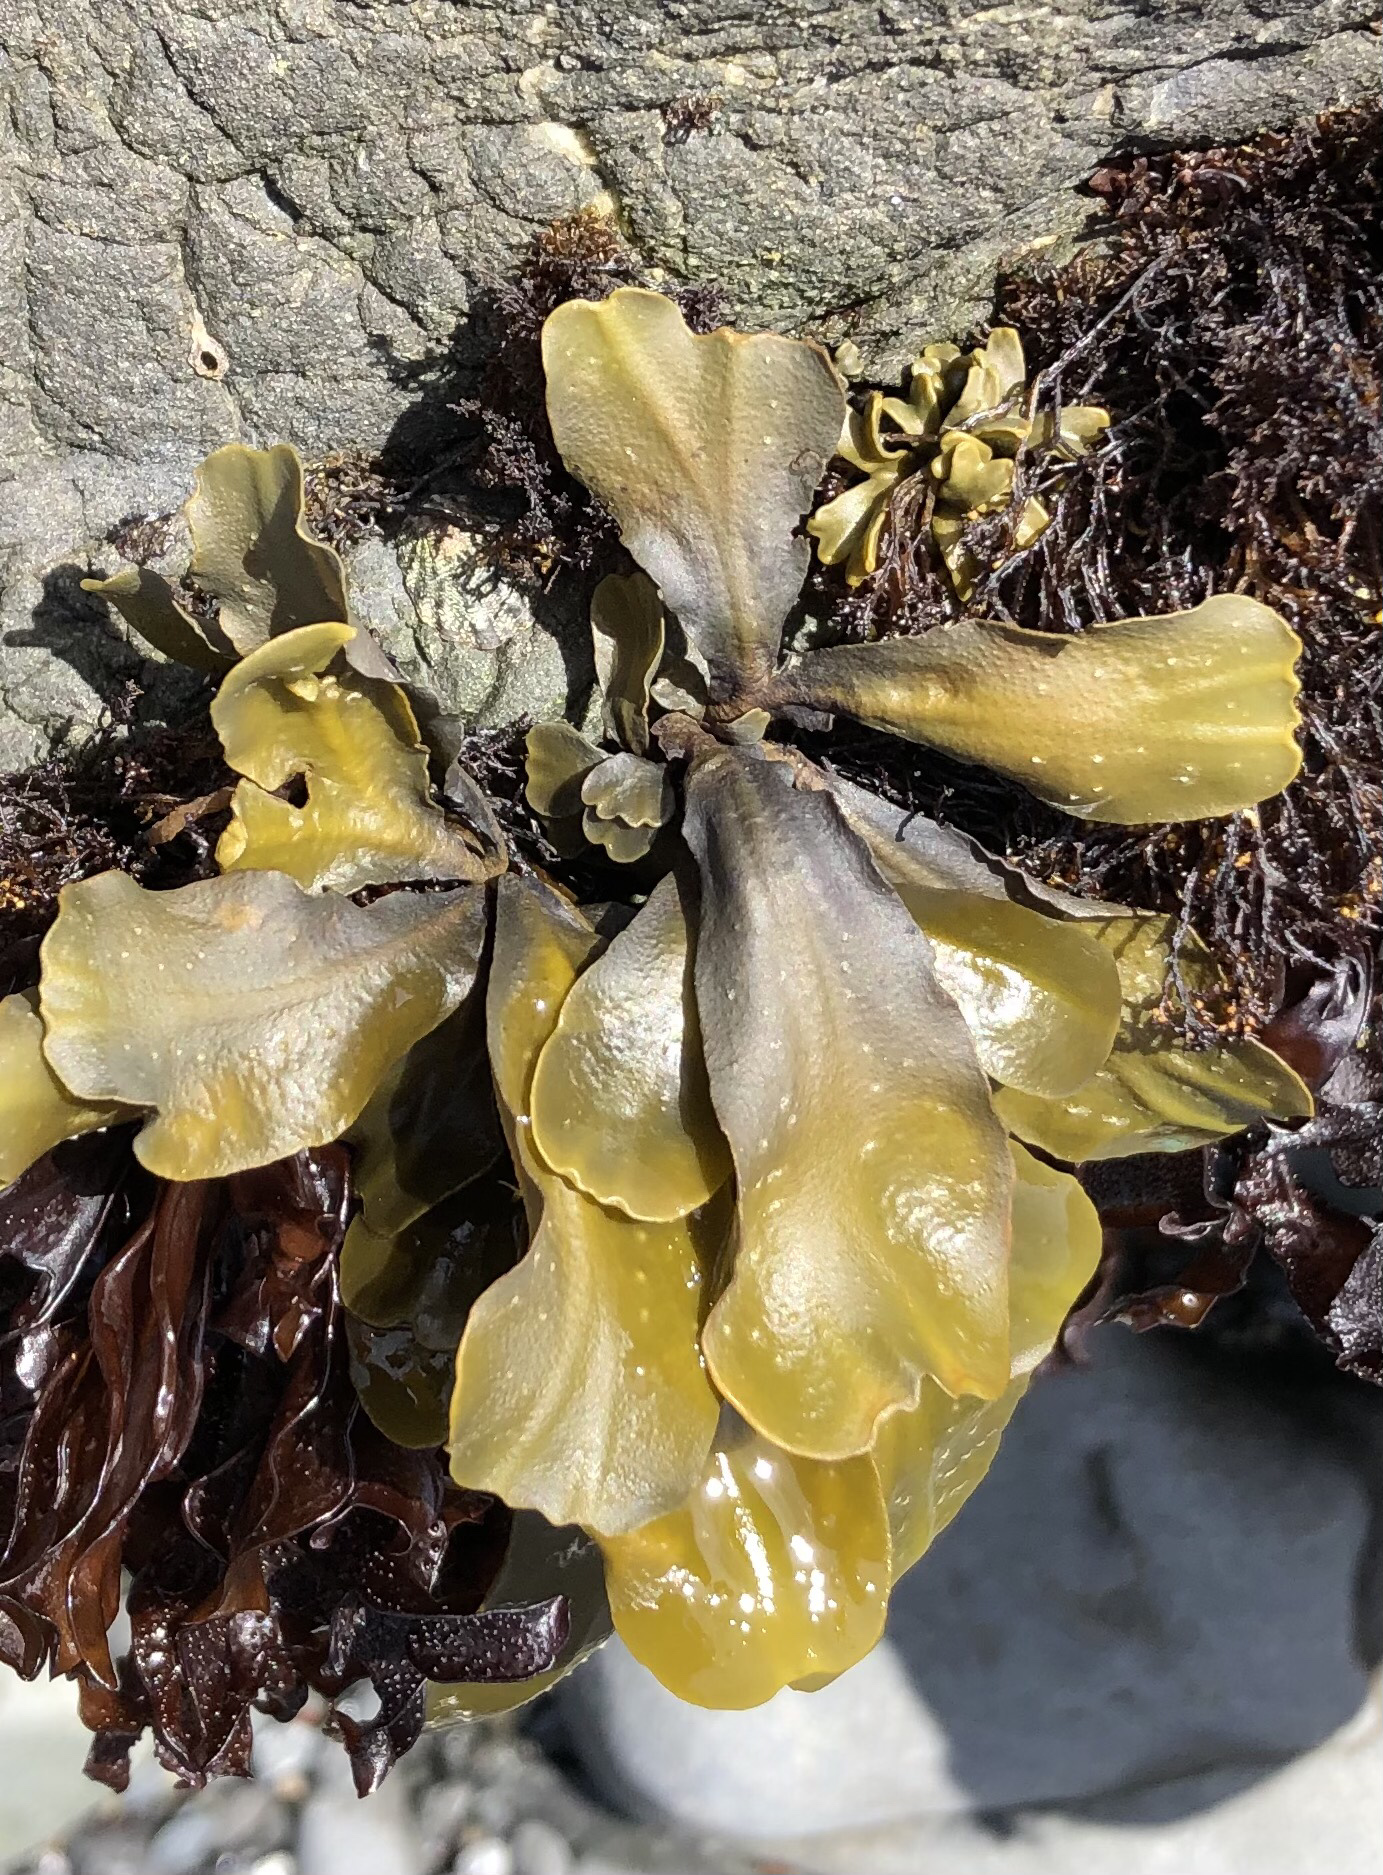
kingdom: Chromista
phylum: Ochrophyta
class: Phaeophyceae
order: Fucales
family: Fucaceae
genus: Fucus
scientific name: Fucus distichus
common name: Rockweed
